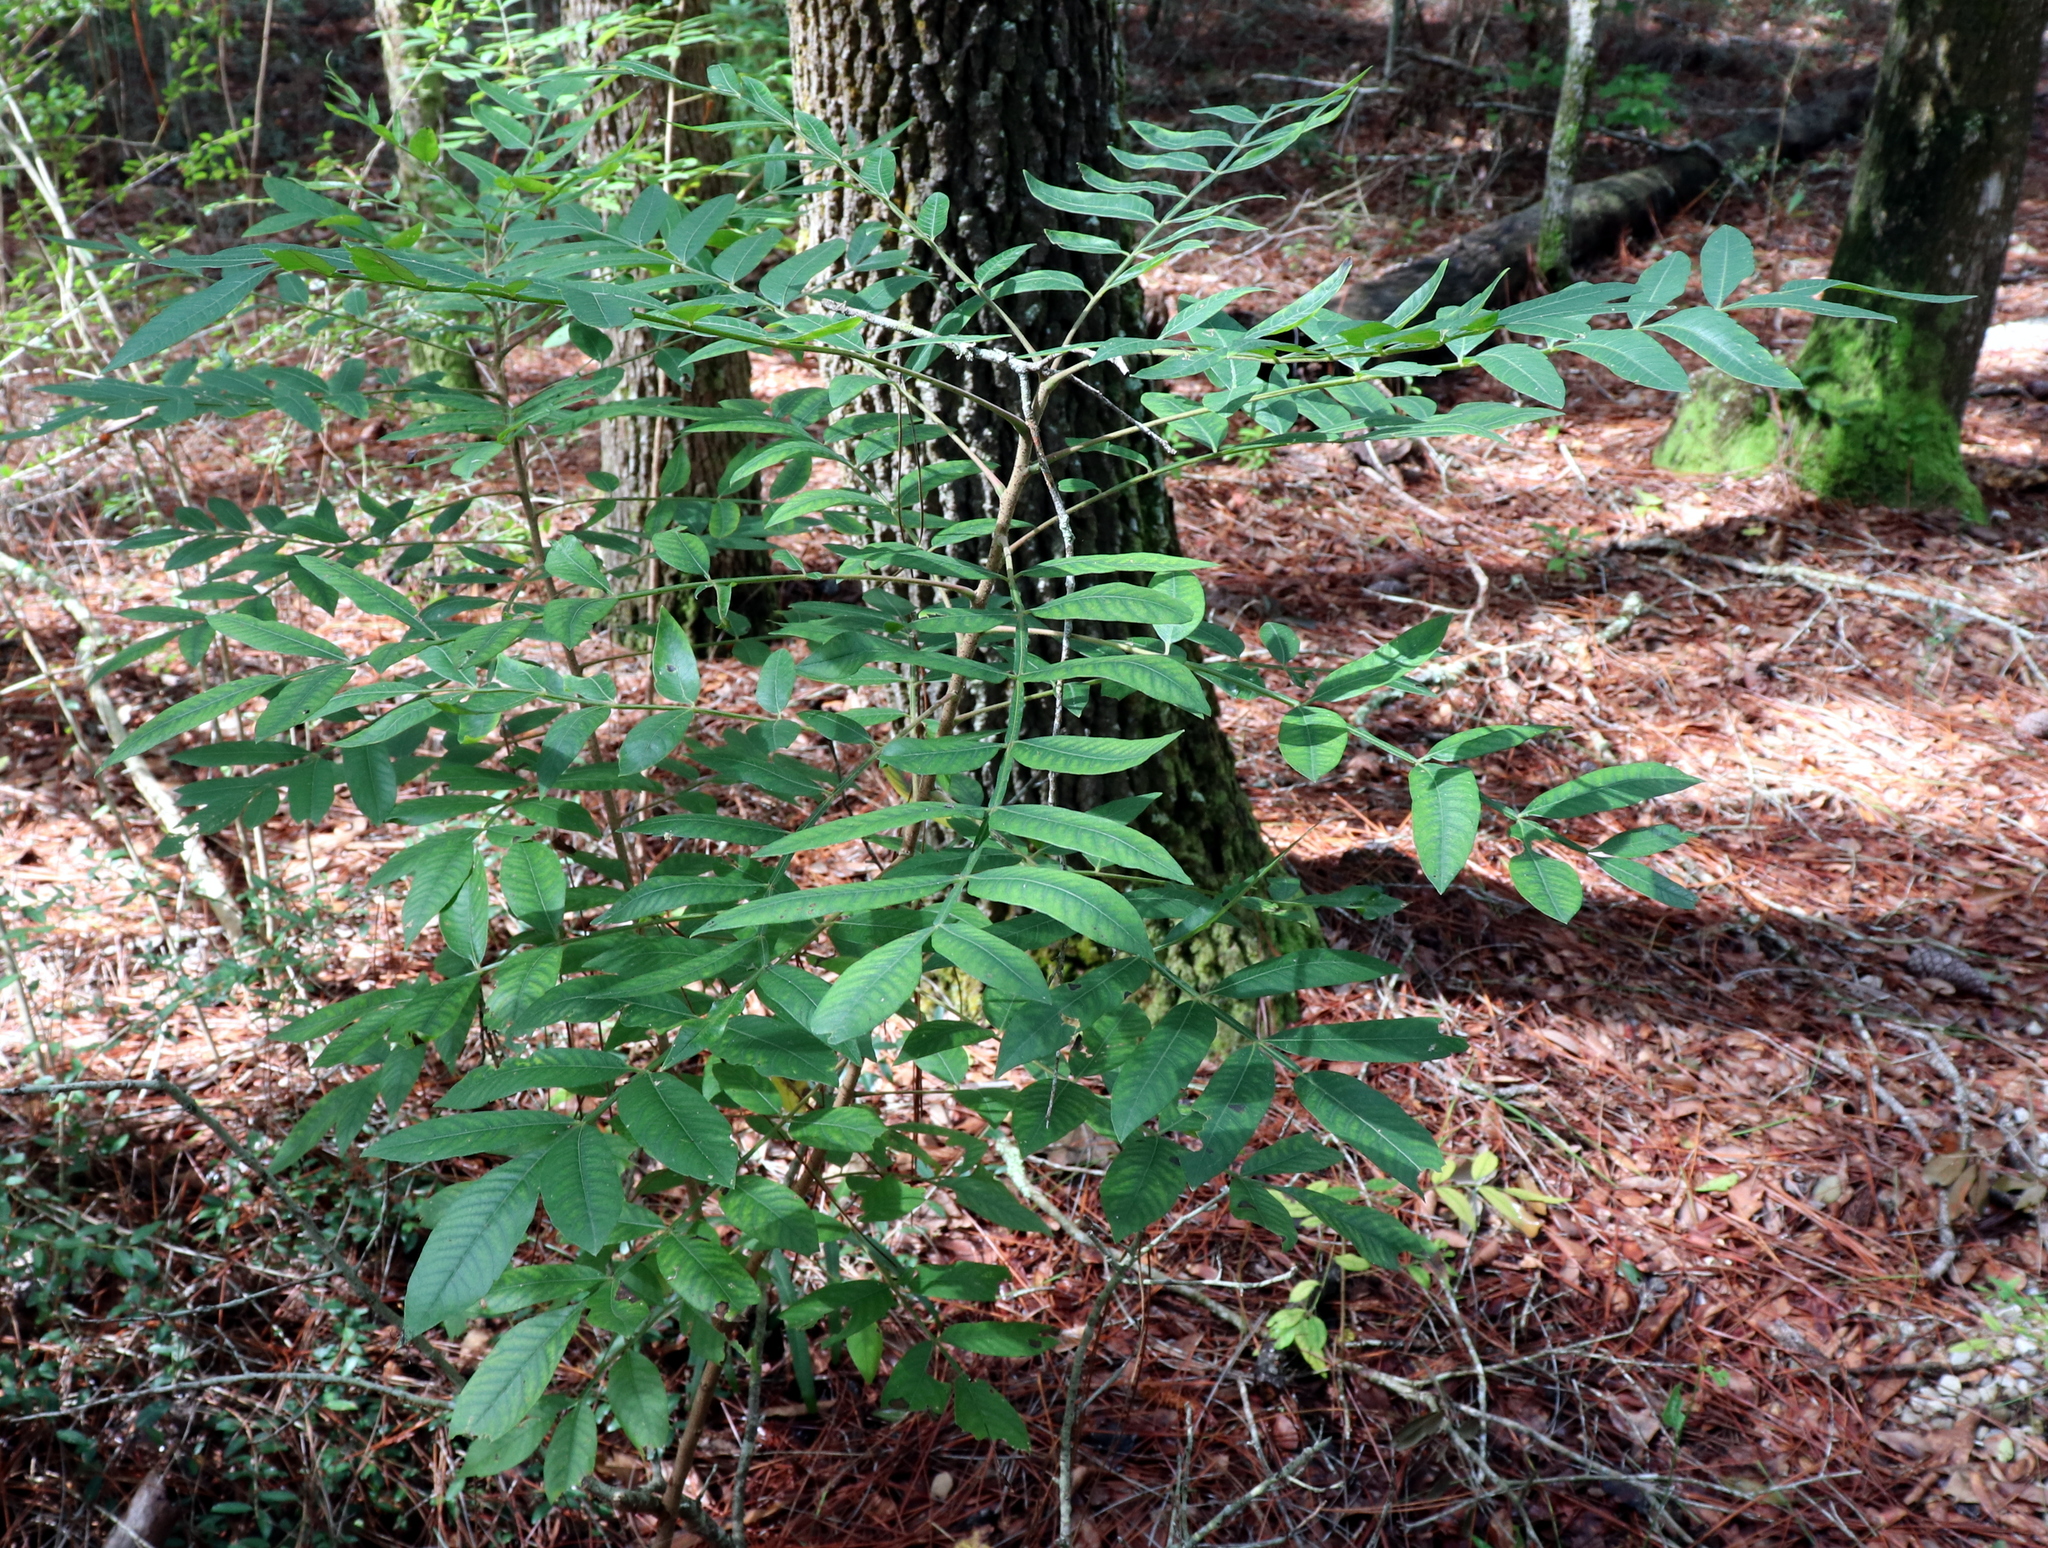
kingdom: Plantae
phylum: Tracheophyta
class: Magnoliopsida
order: Sapindales
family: Anacardiaceae
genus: Rhus
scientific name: Rhus copallina
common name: Shining sumac
